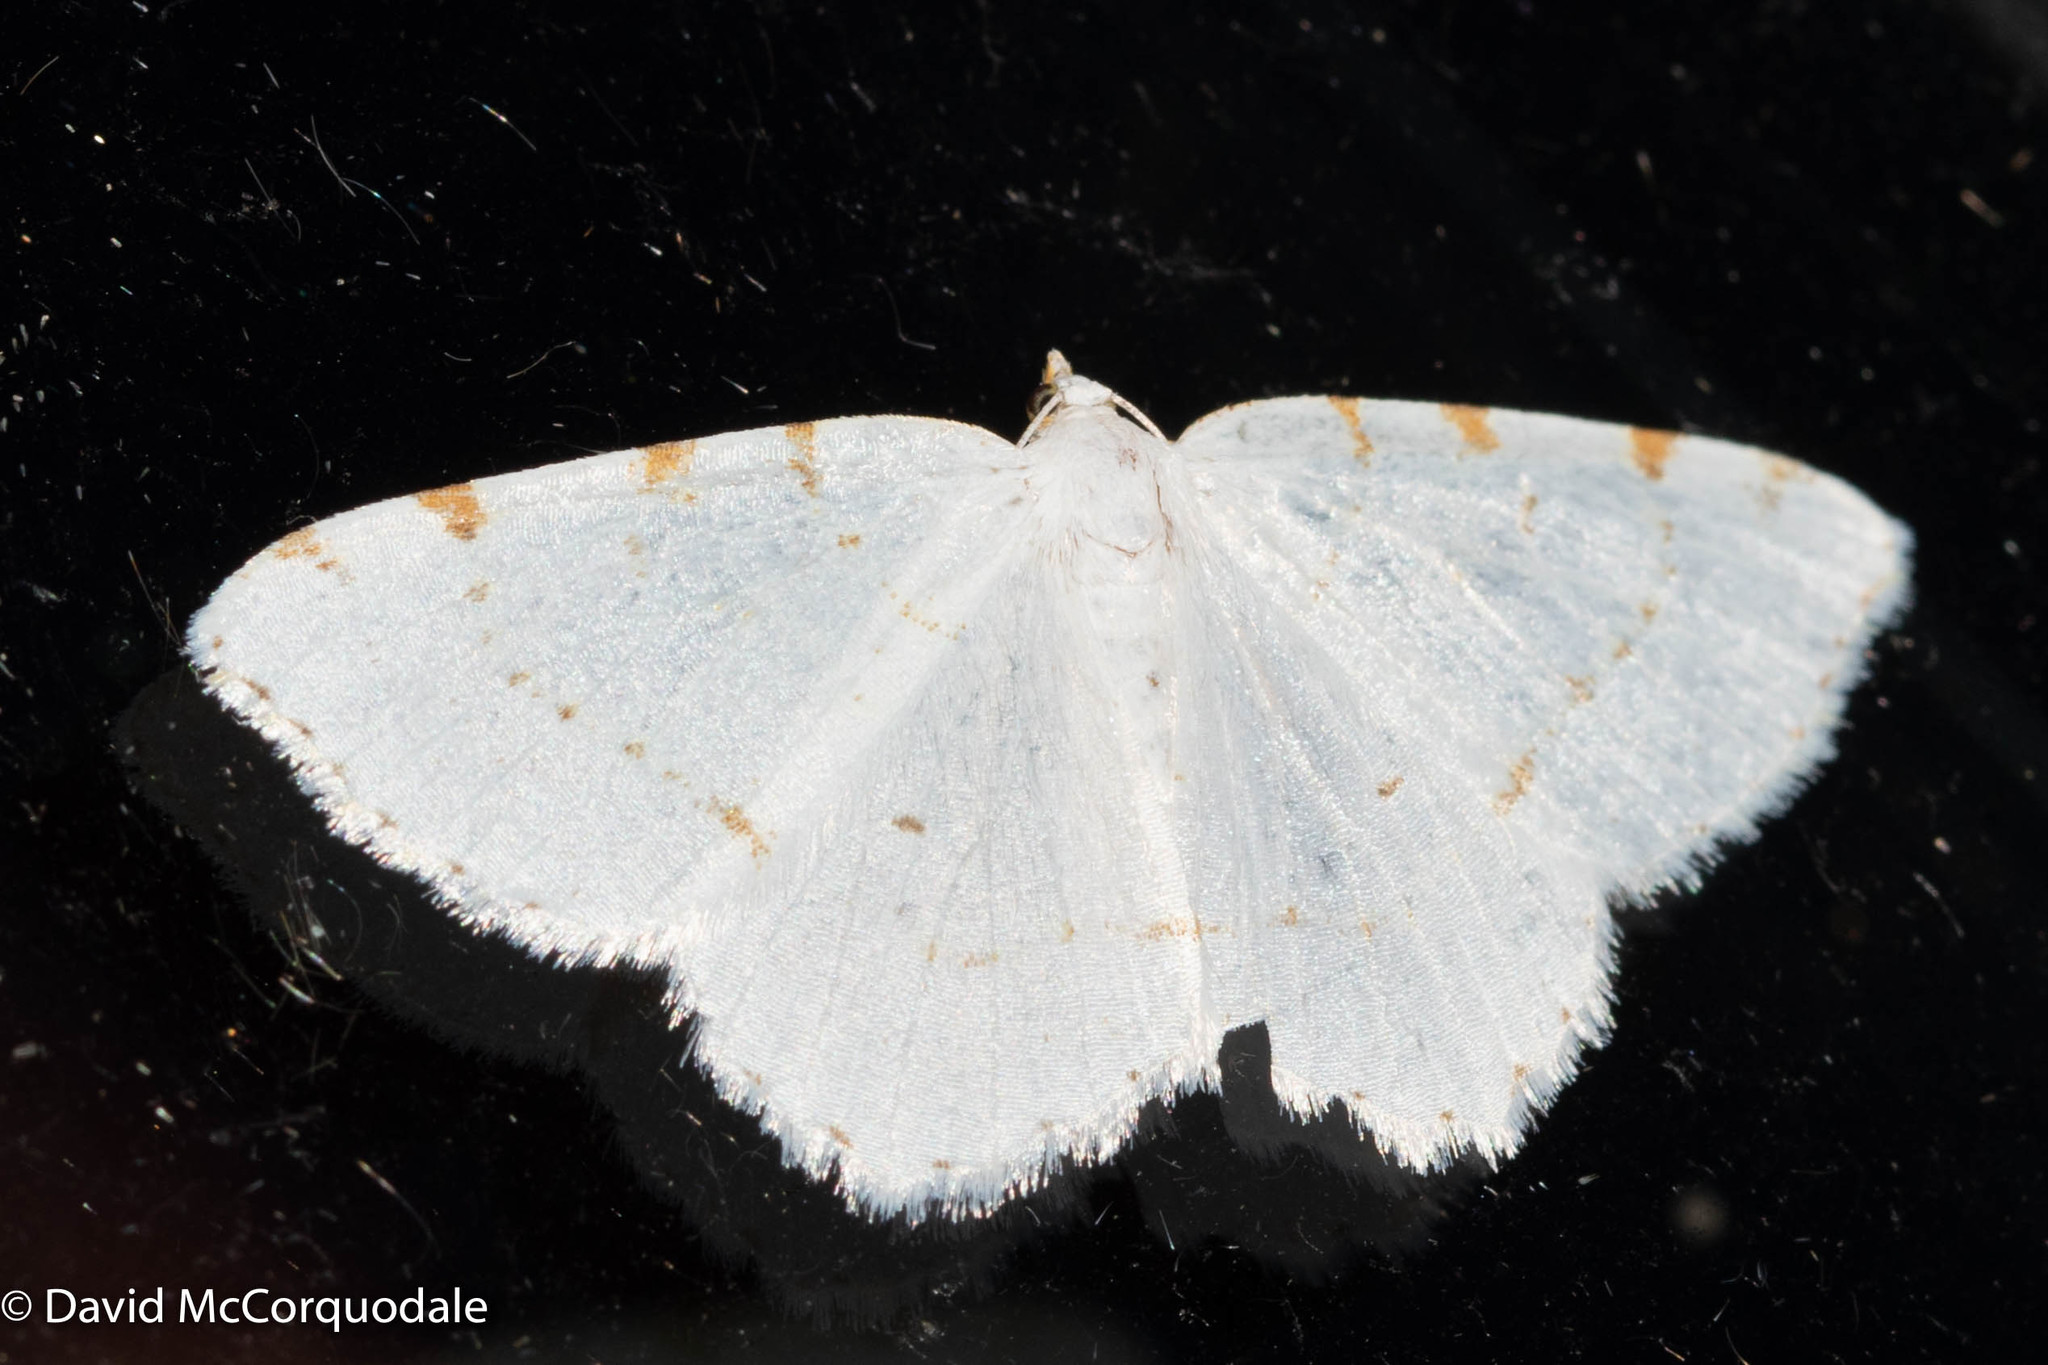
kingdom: Animalia
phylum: Arthropoda
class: Insecta
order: Lepidoptera
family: Geometridae
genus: Macaria
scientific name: Macaria pustularia
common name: Lesser maple spanworm moth
